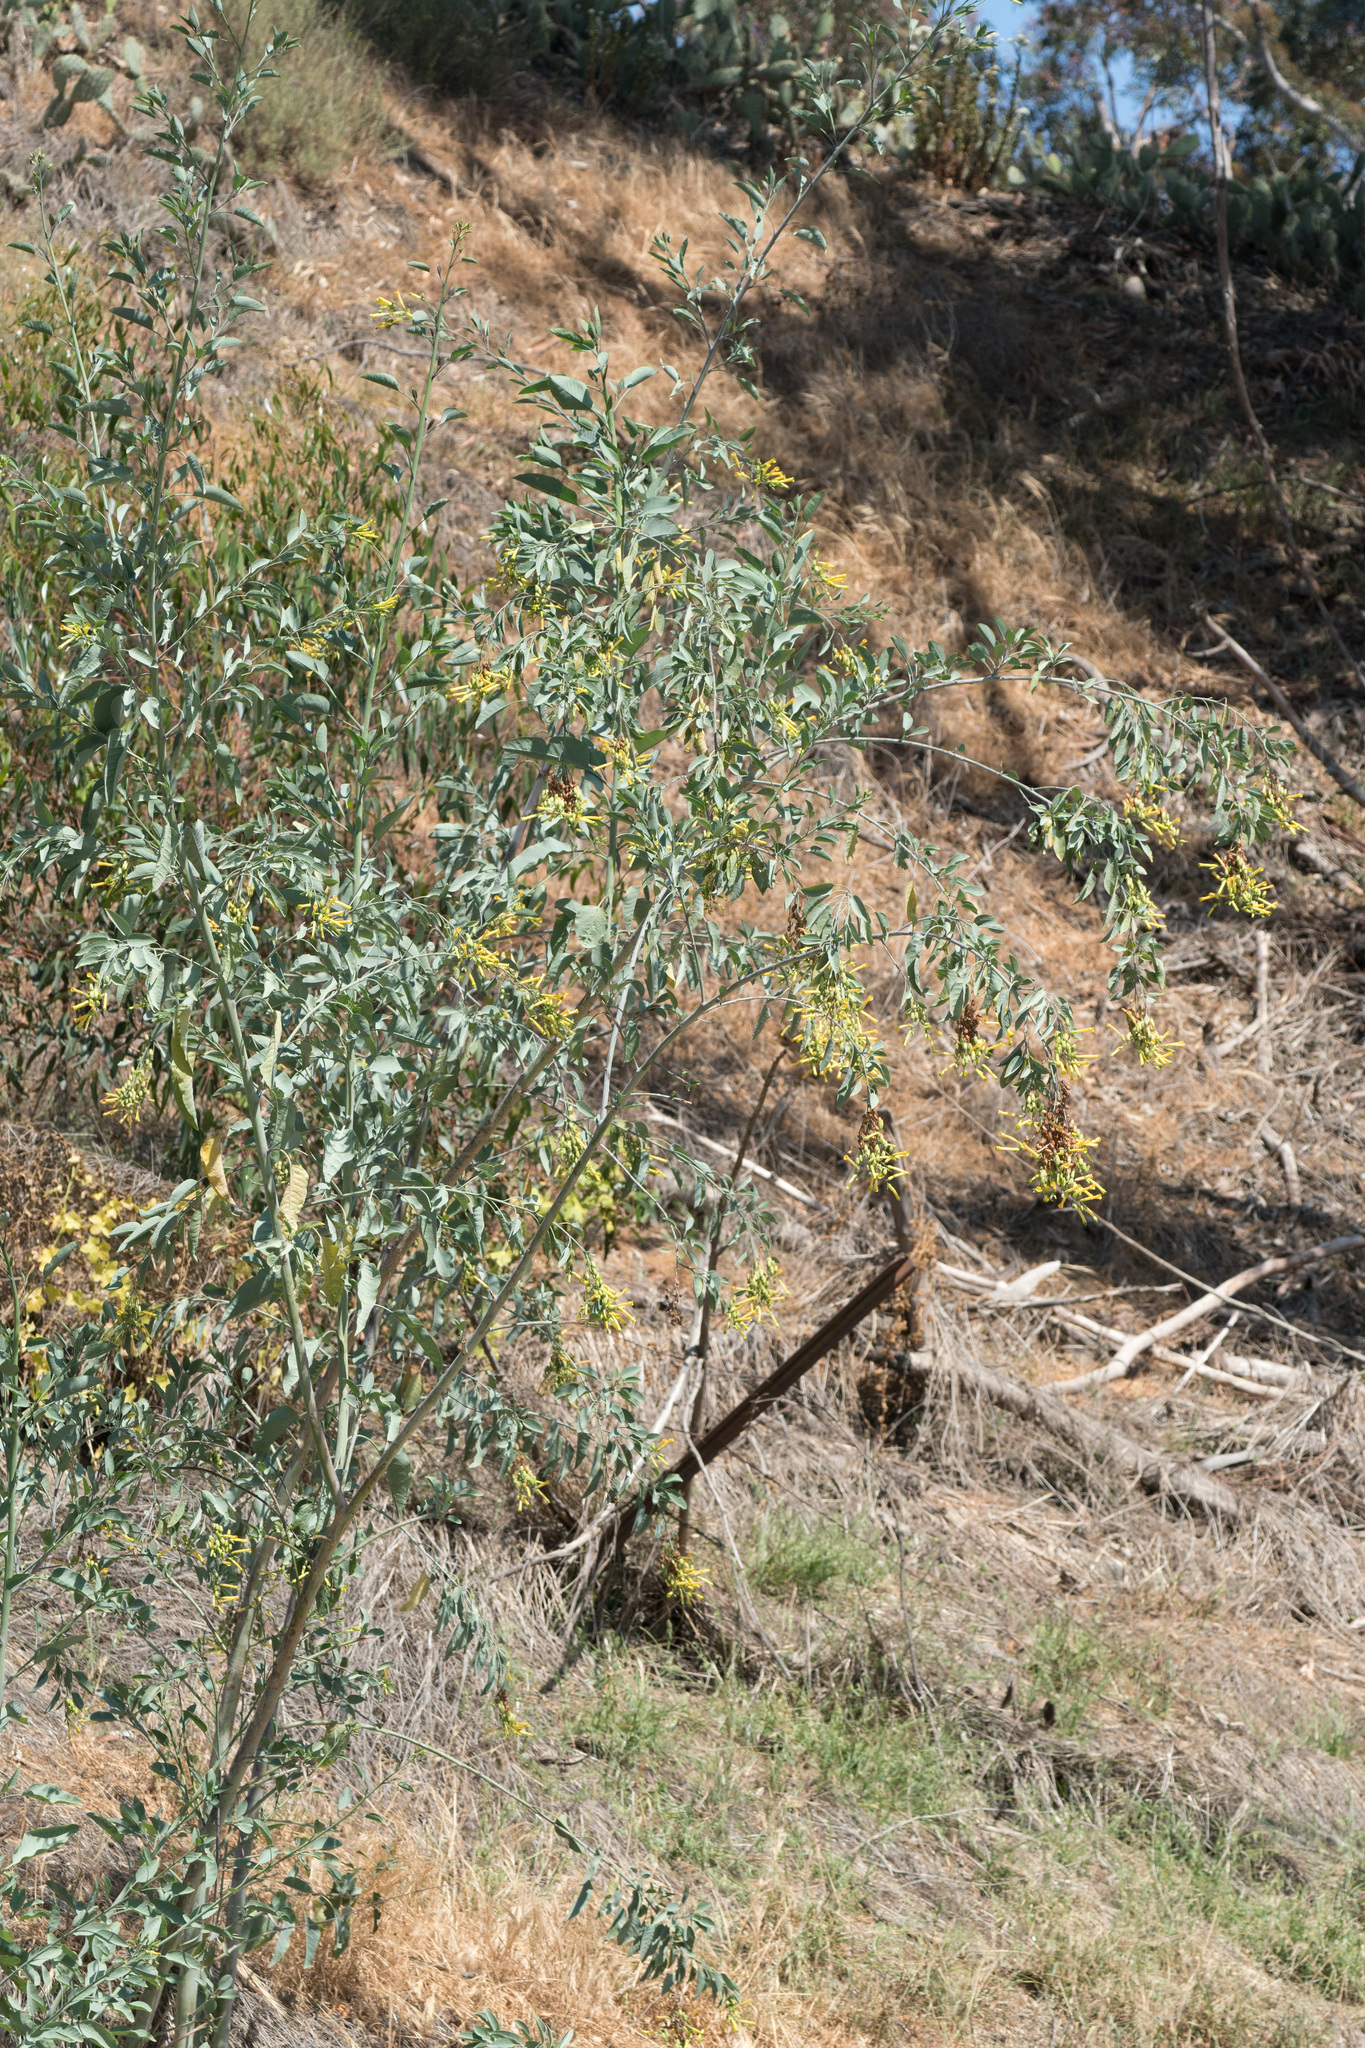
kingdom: Plantae
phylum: Tracheophyta
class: Magnoliopsida
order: Solanales
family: Solanaceae
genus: Nicotiana
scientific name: Nicotiana glauca
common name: Tree tobacco
